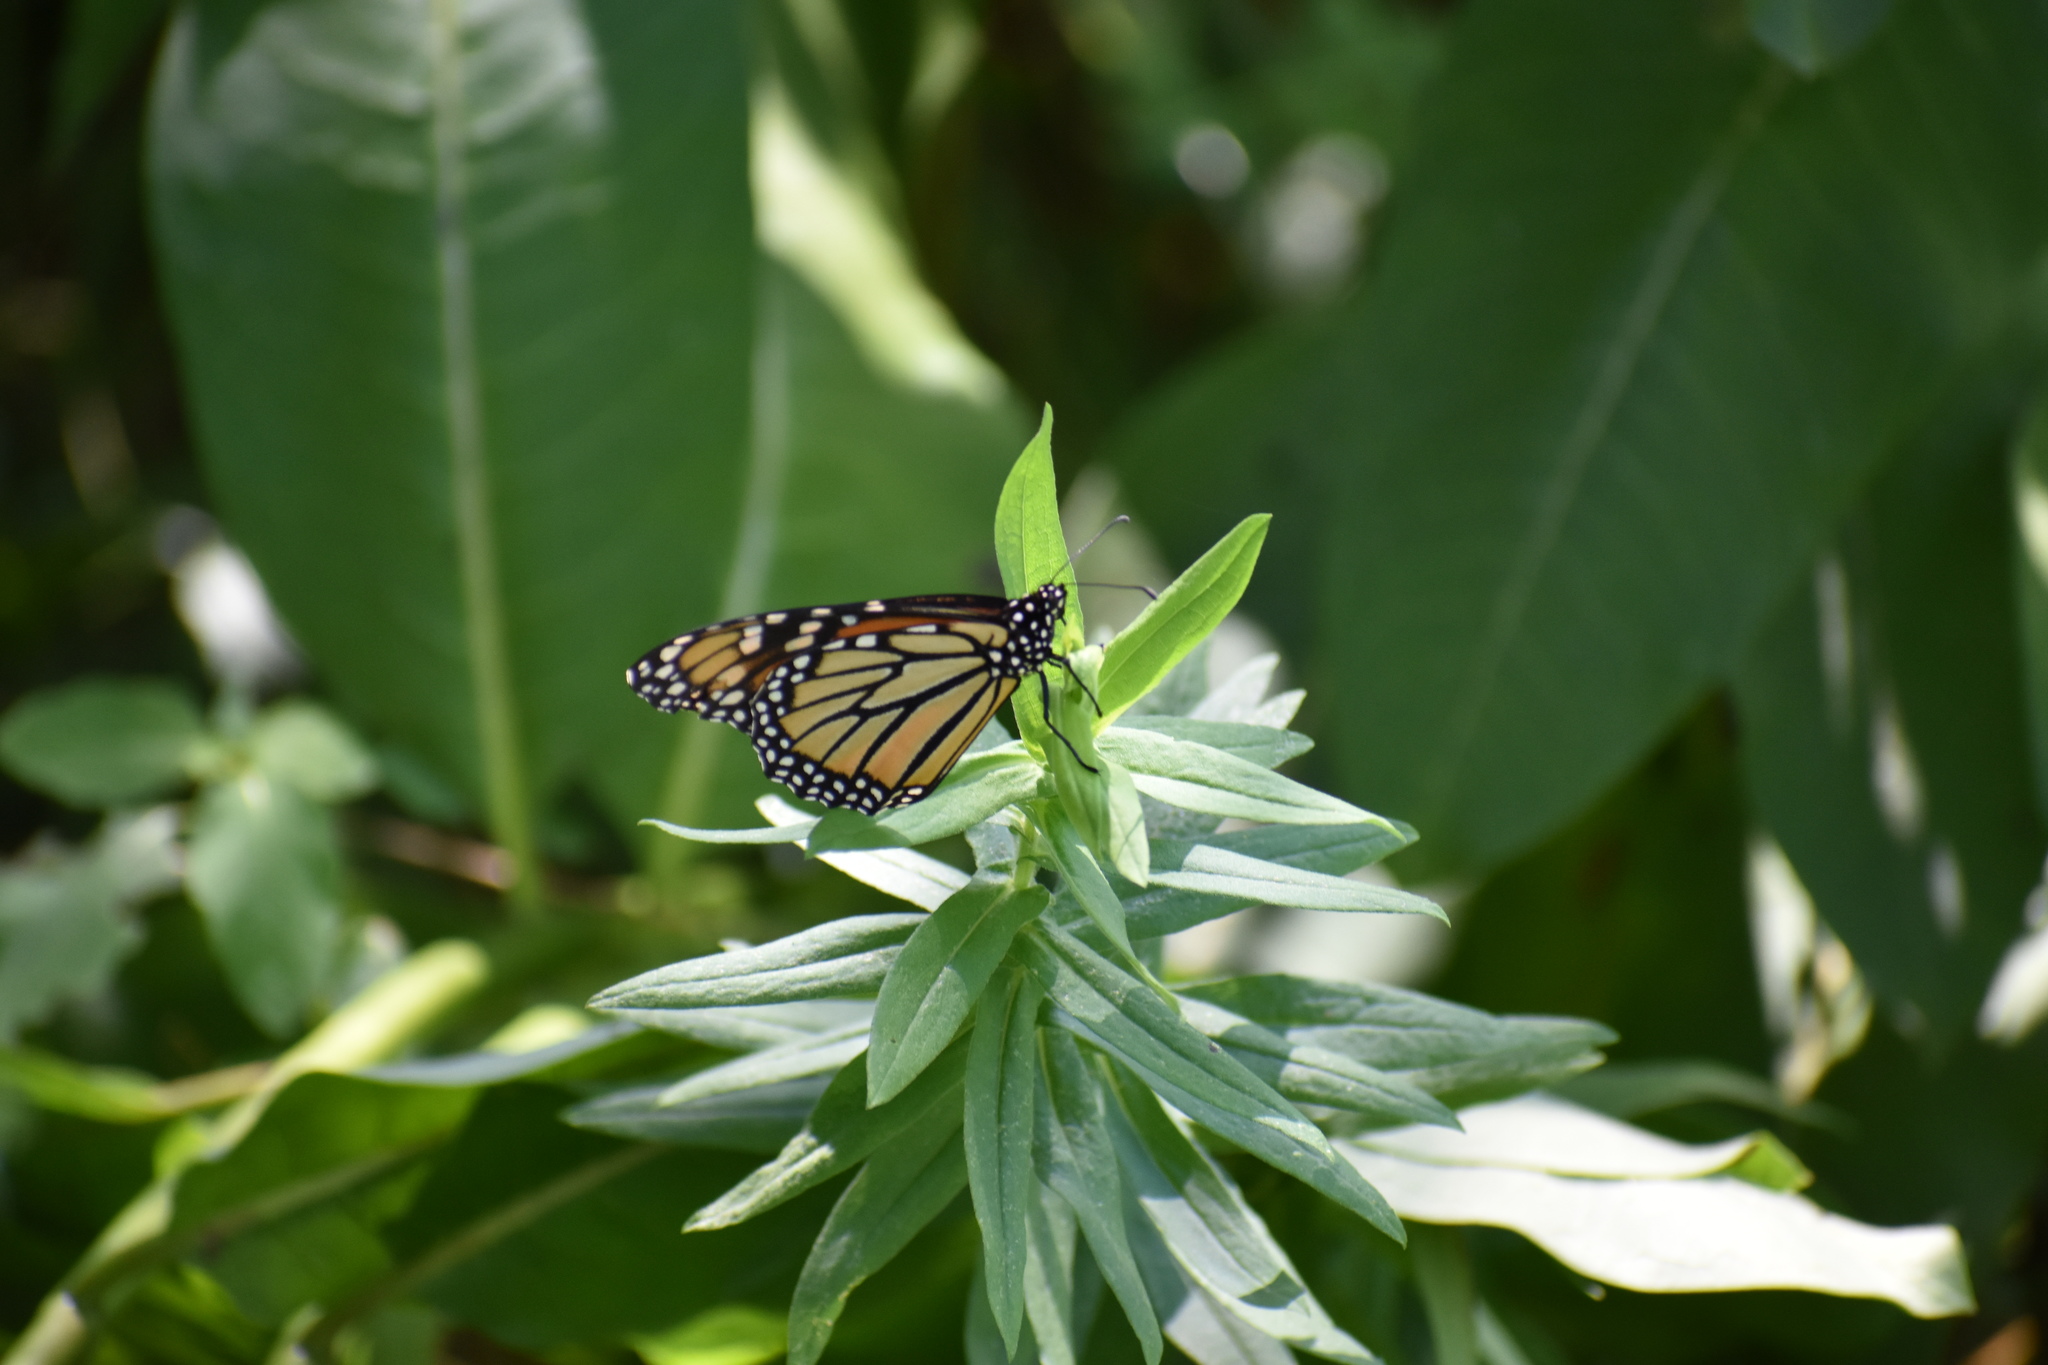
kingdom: Animalia
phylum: Arthropoda
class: Insecta
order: Lepidoptera
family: Nymphalidae
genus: Danaus
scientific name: Danaus plexippus
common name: Monarch
